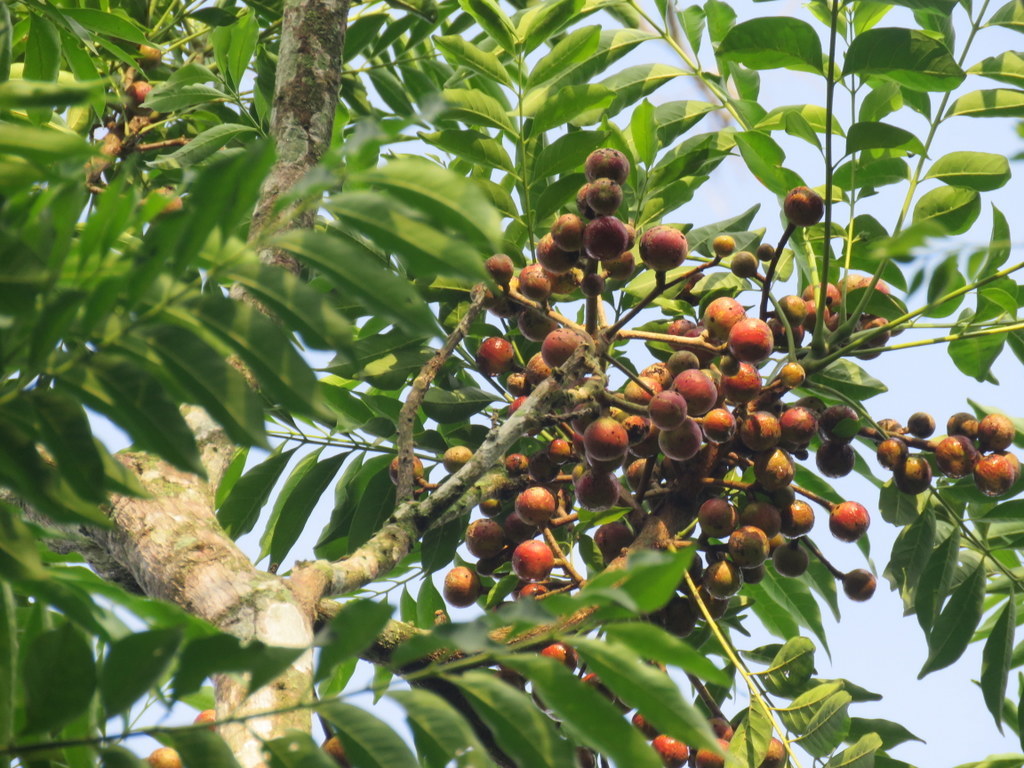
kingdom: Plantae
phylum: Tracheophyta
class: Magnoliopsida
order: Sapindales
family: Meliaceae
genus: Cabralea
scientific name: Cabralea canjerana
